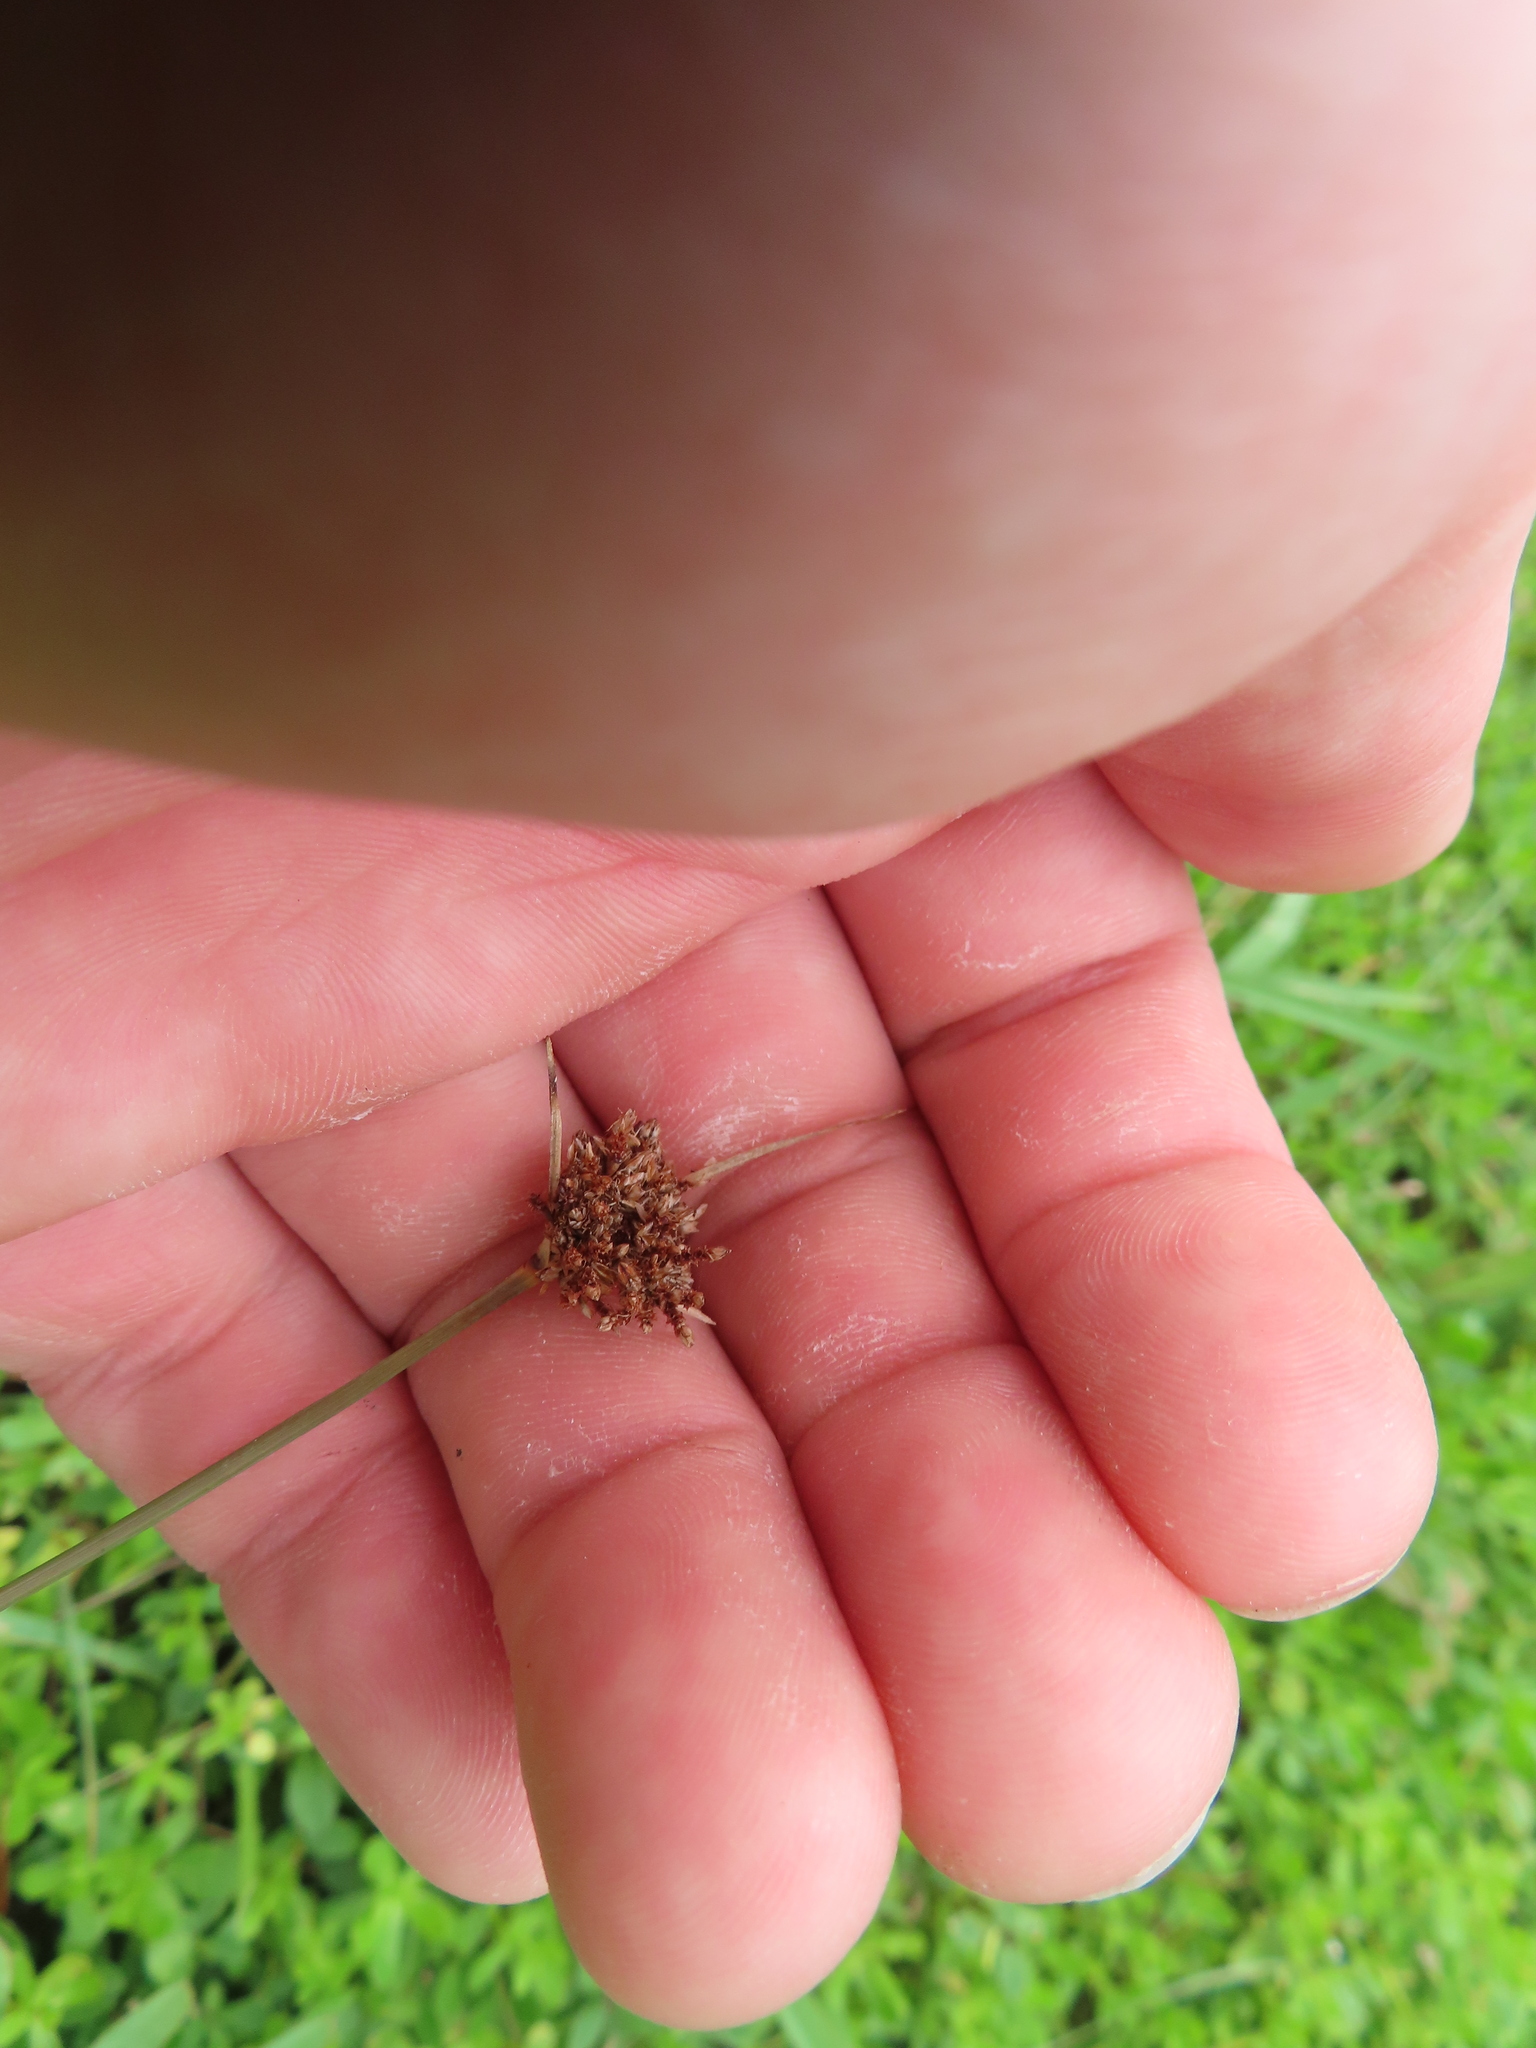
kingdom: Plantae
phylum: Tracheophyta
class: Liliopsida
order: Poales
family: Cyperaceae
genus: Fimbristylis
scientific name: Fimbristylis cymosa
